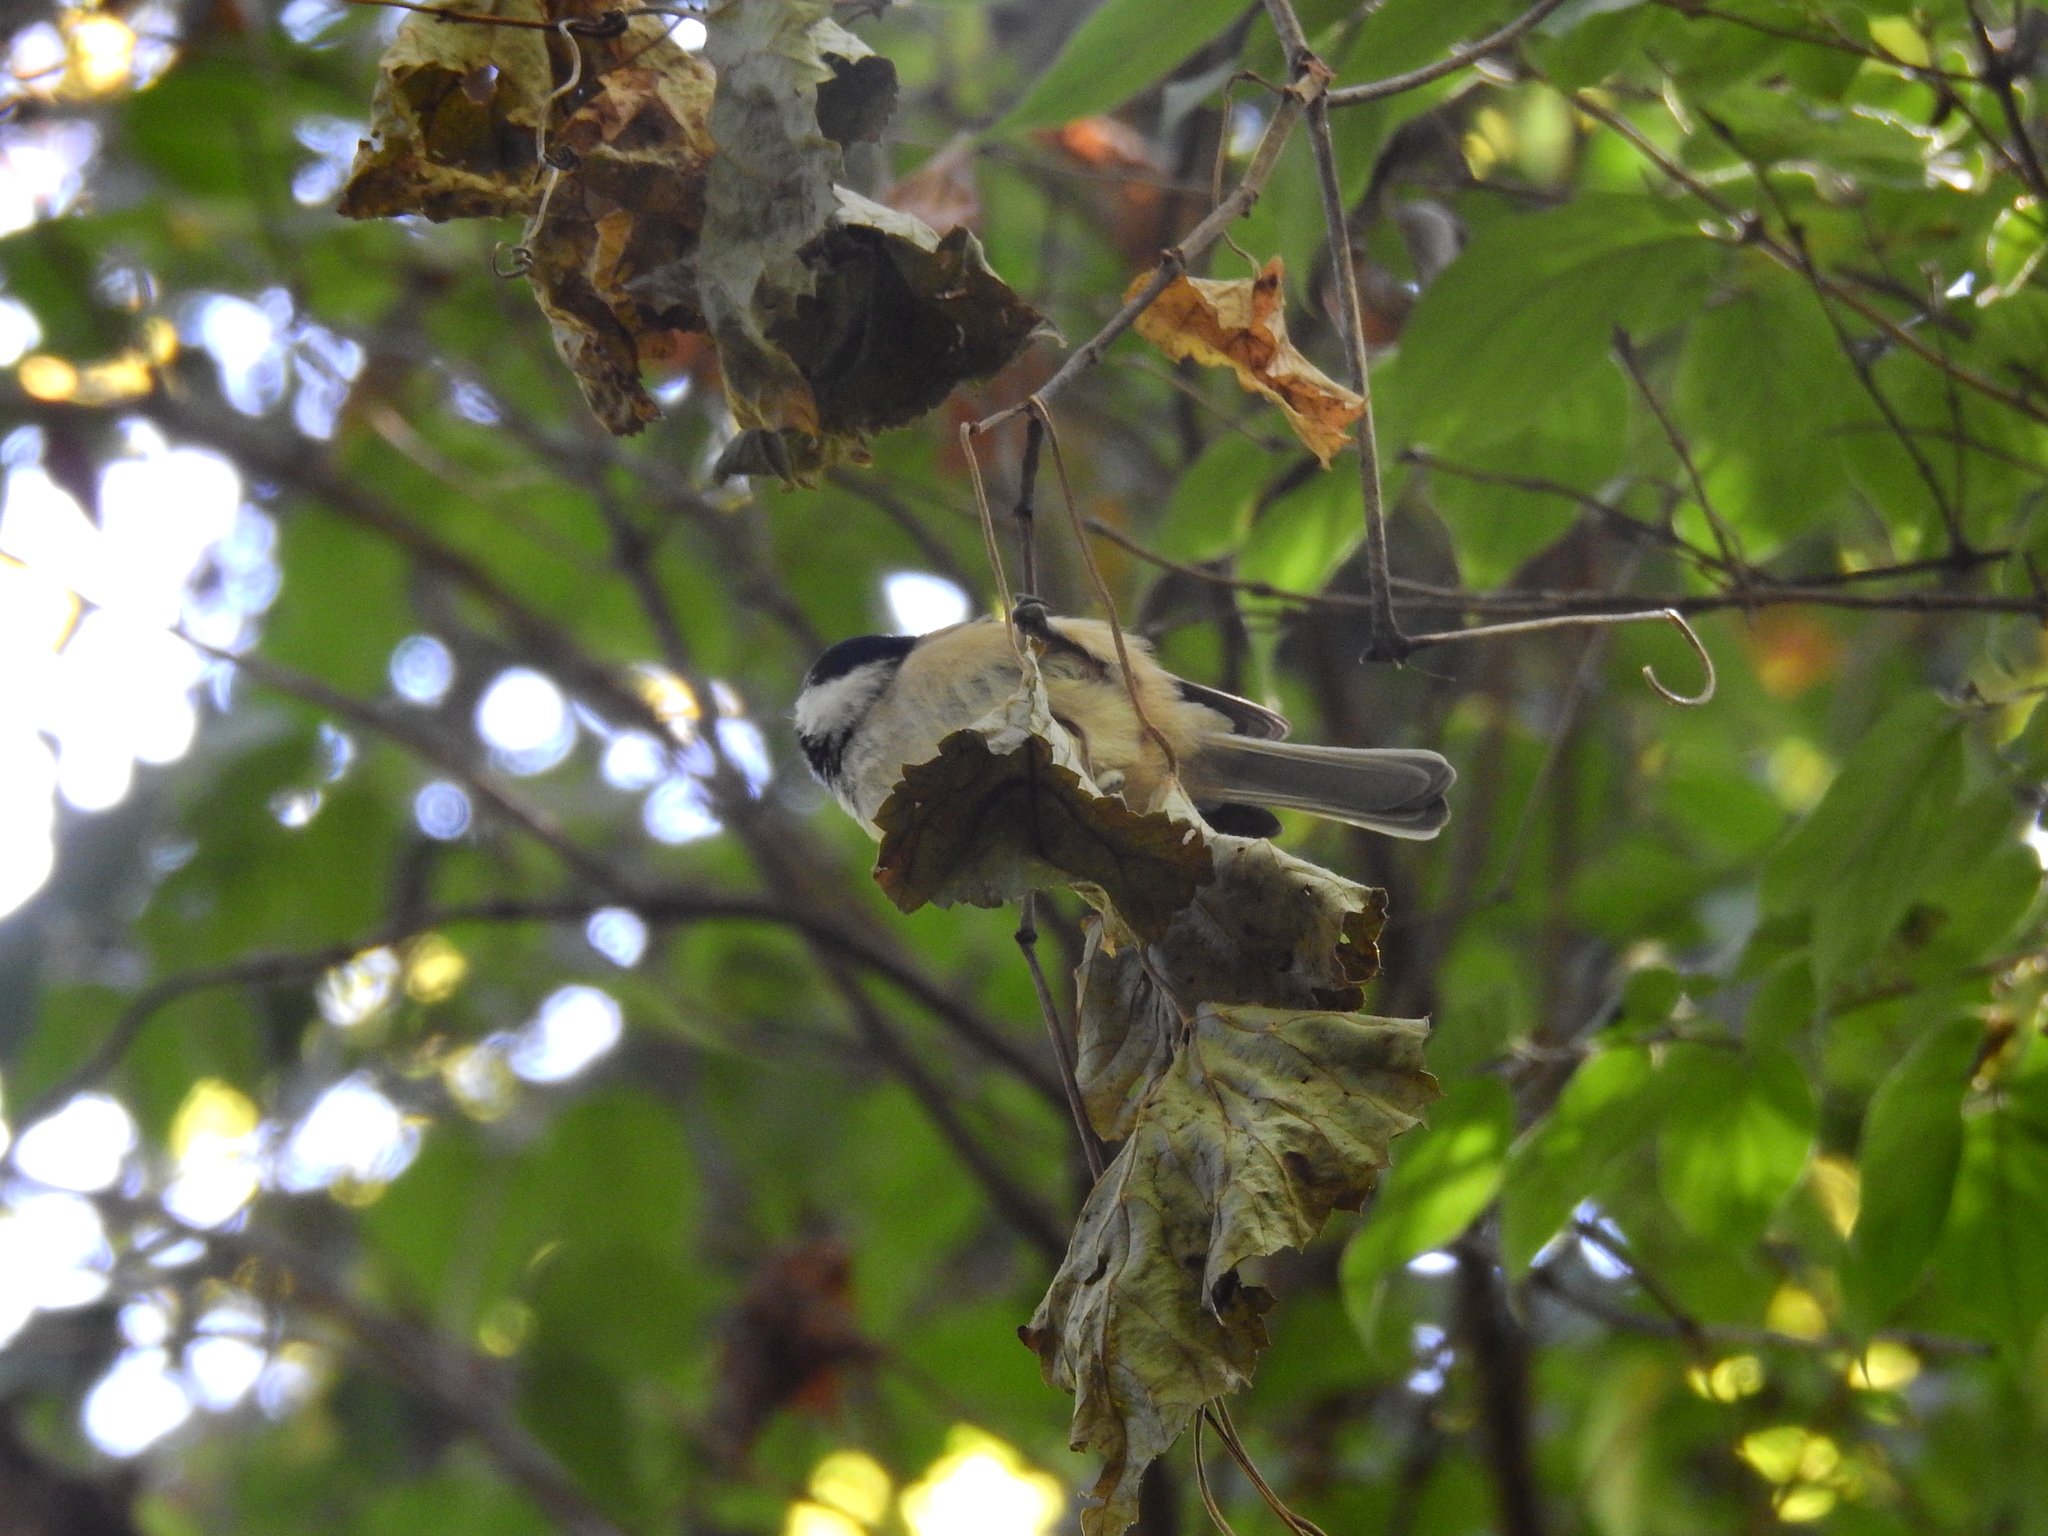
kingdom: Animalia
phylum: Chordata
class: Aves
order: Passeriformes
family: Paridae
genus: Poecile
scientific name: Poecile carolinensis
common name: Carolina chickadee
